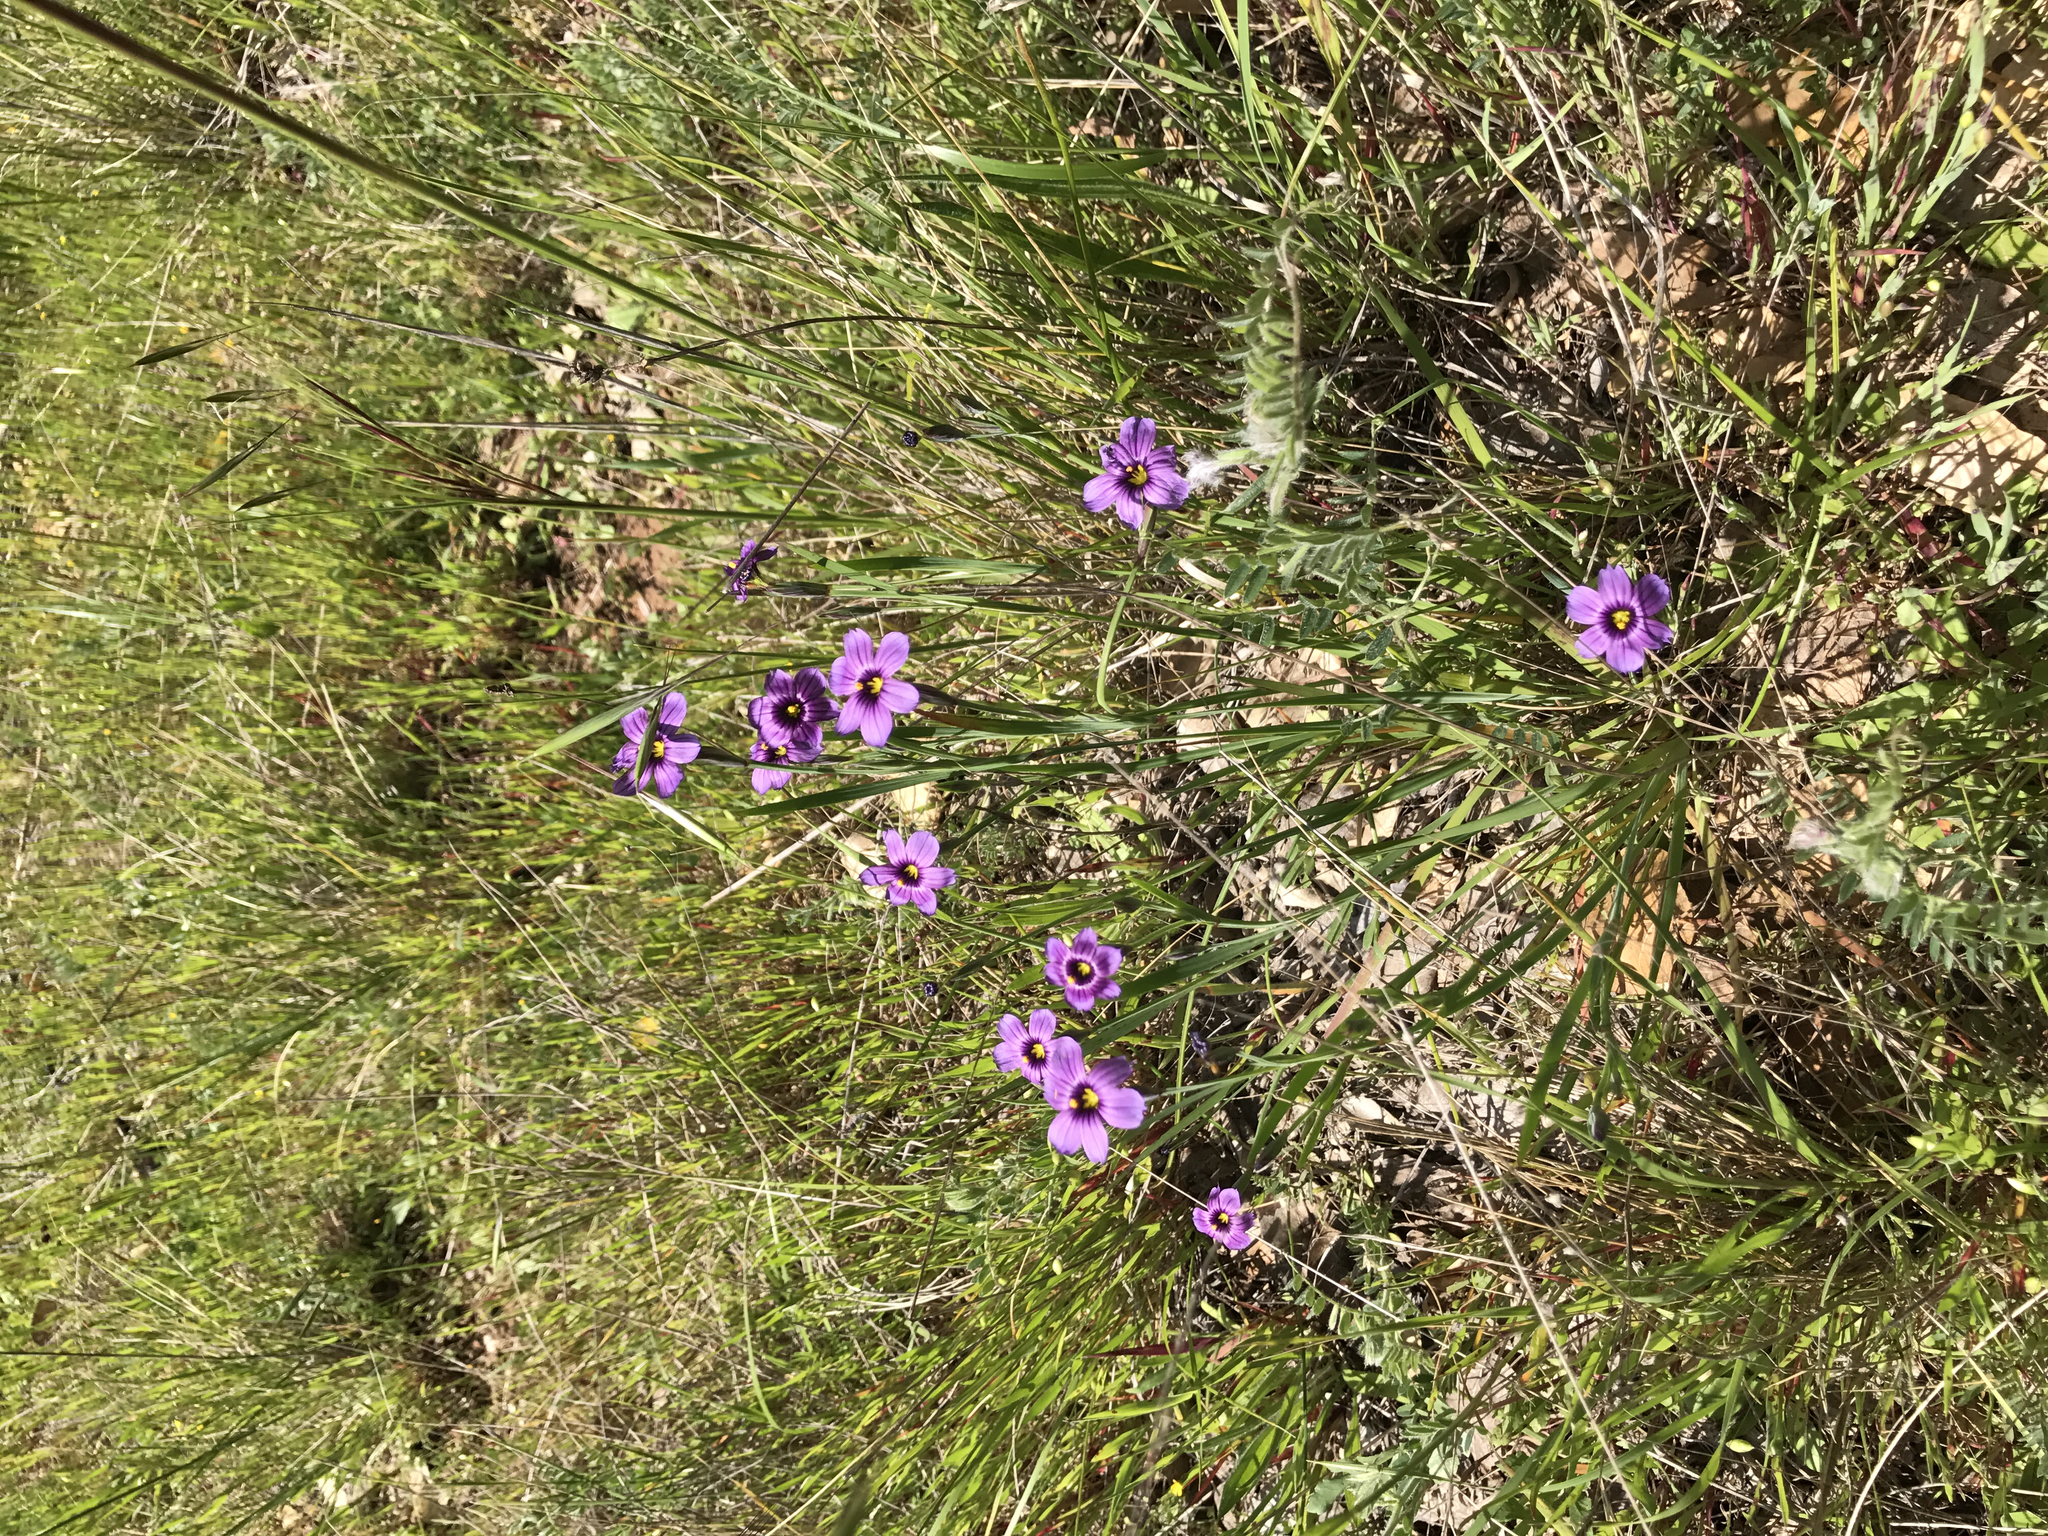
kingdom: Plantae
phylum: Tracheophyta
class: Liliopsida
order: Asparagales
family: Iridaceae
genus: Sisyrinchium
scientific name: Sisyrinchium bellum
